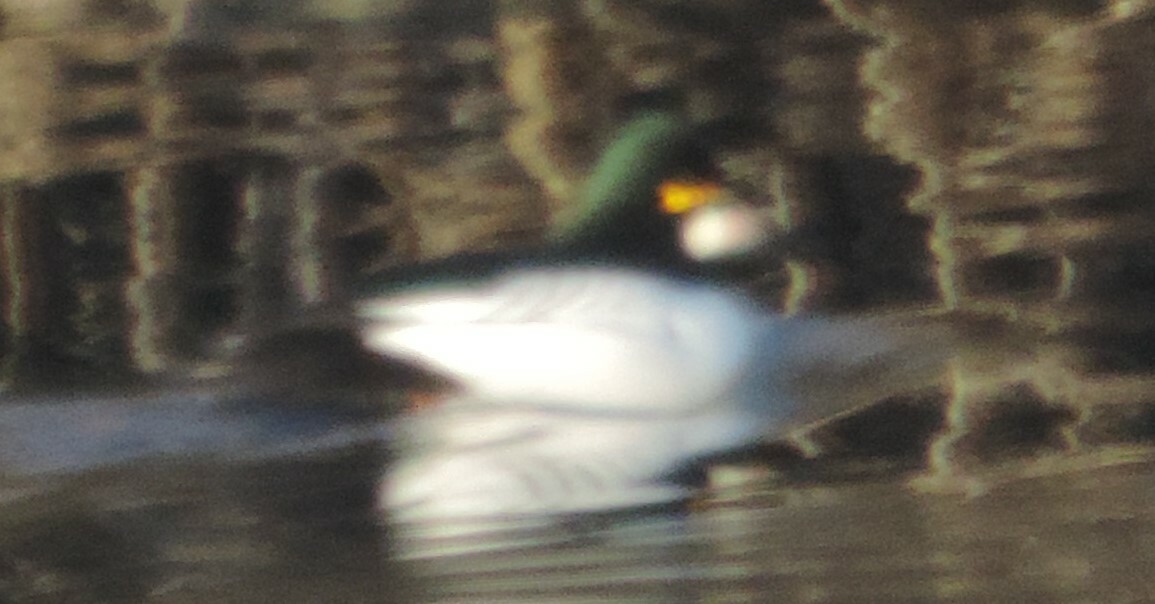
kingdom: Animalia
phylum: Chordata
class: Aves
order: Anseriformes
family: Anatidae
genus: Bucephala
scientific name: Bucephala clangula
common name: Common goldeneye
